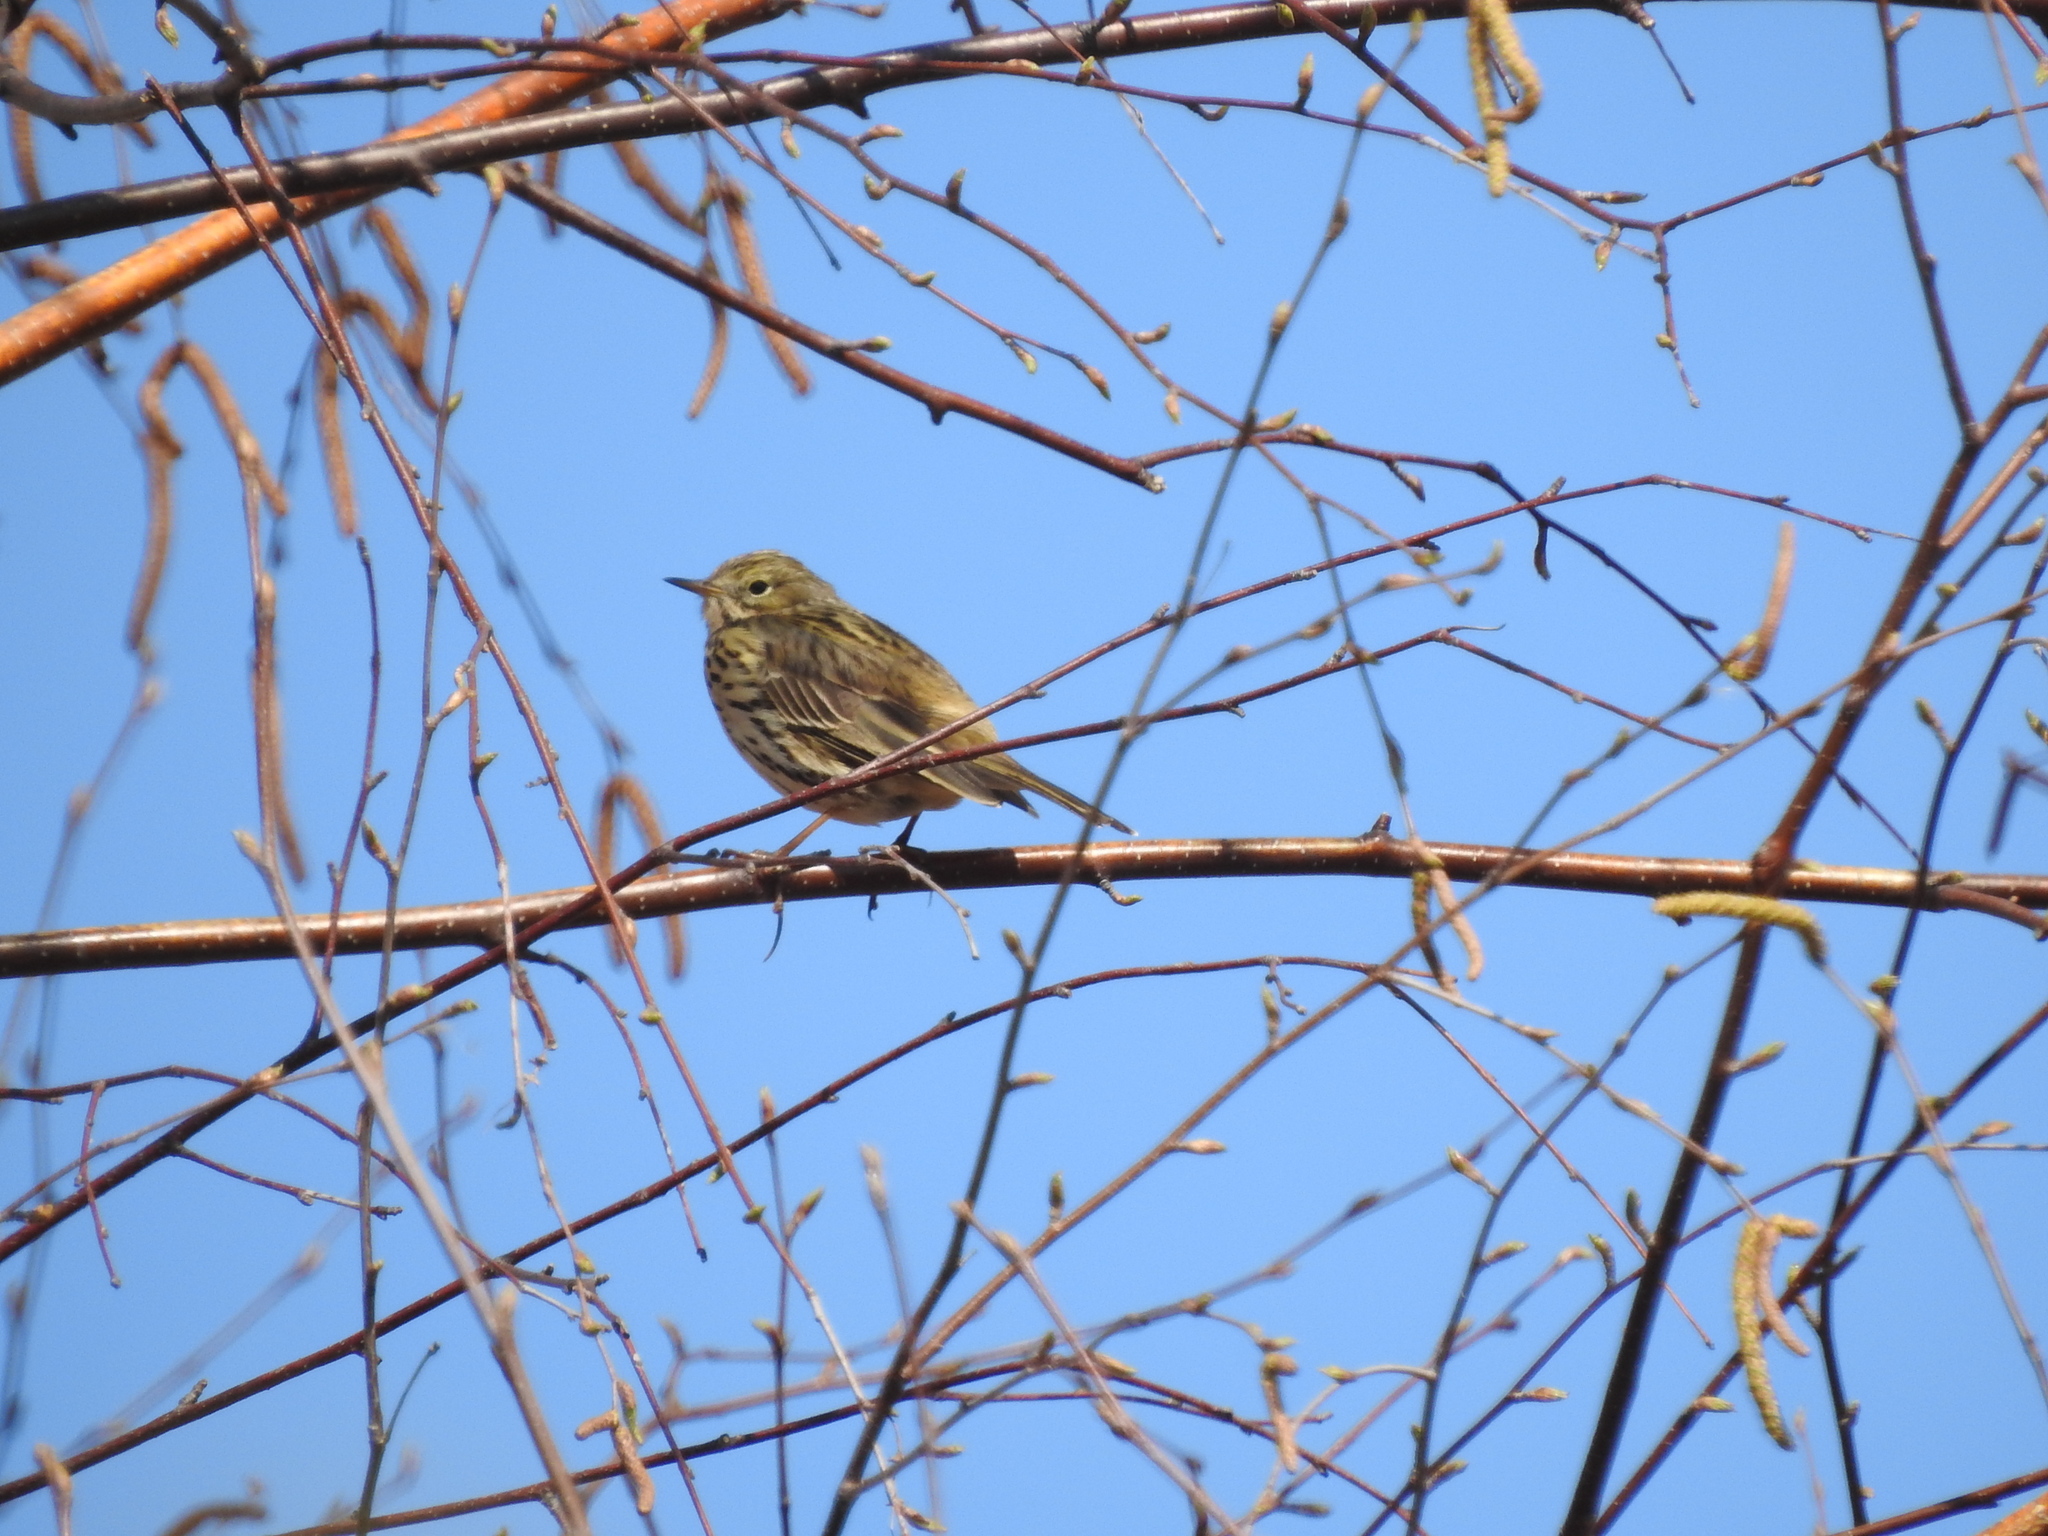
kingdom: Animalia
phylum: Chordata
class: Aves
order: Passeriformes
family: Motacillidae
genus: Anthus
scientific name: Anthus pratensis
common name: Meadow pipit
